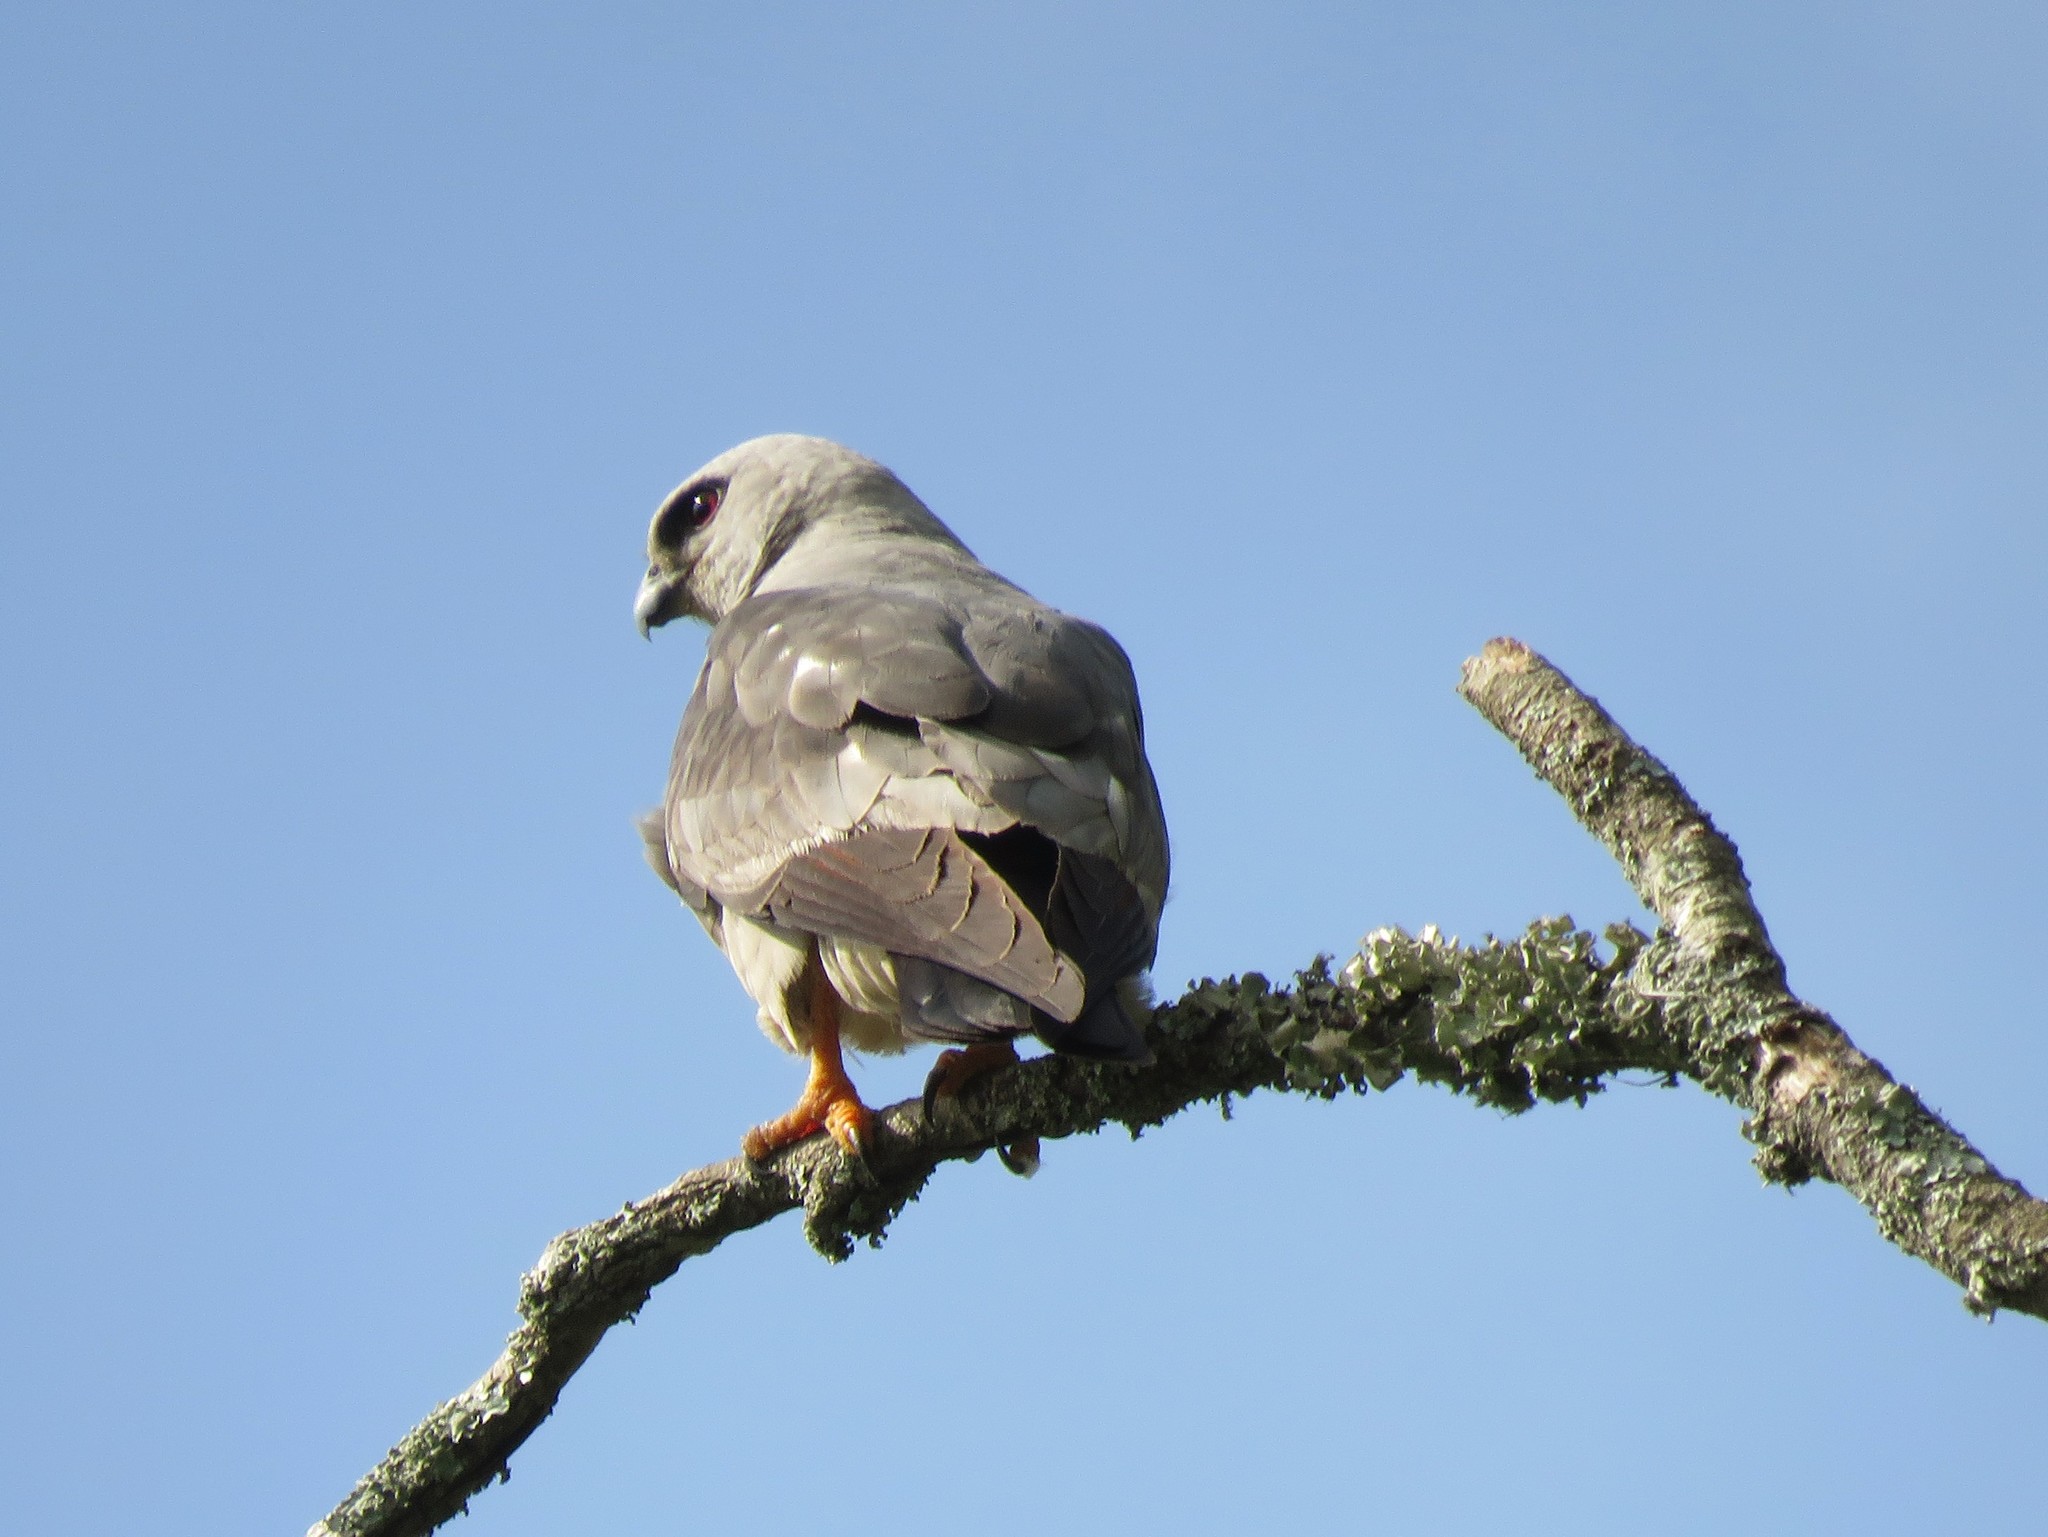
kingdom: Animalia
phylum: Chordata
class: Aves
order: Accipitriformes
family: Accipitridae
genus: Ictinia
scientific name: Ictinia mississippiensis
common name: Mississippi kite
